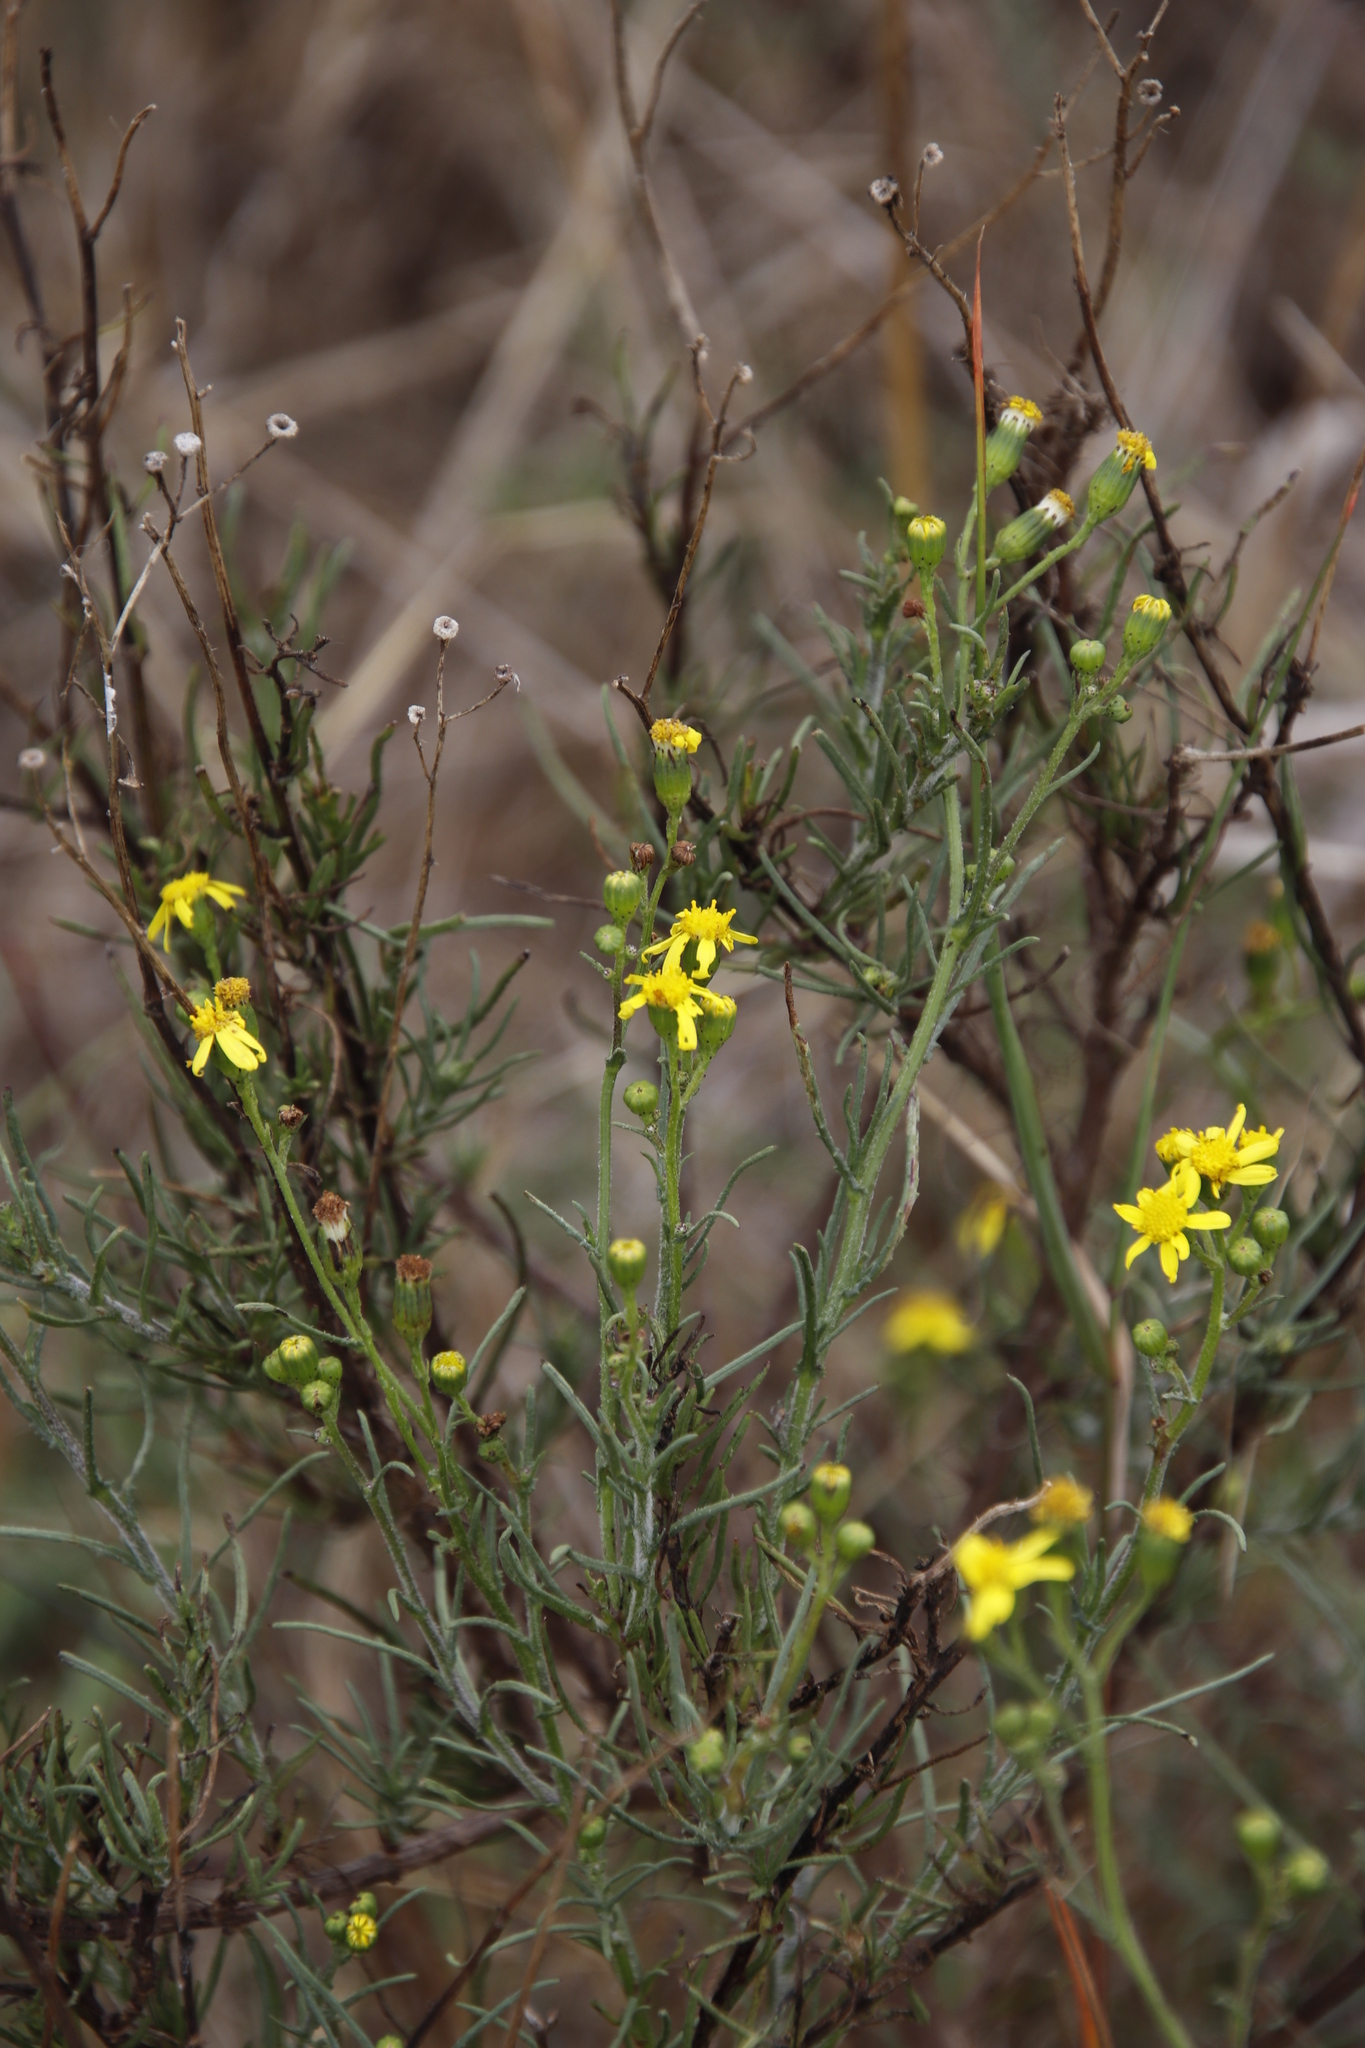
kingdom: Plantae
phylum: Tracheophyta
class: Magnoliopsida
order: Asterales
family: Asteraceae
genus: Senecio
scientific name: Senecio burchellii
